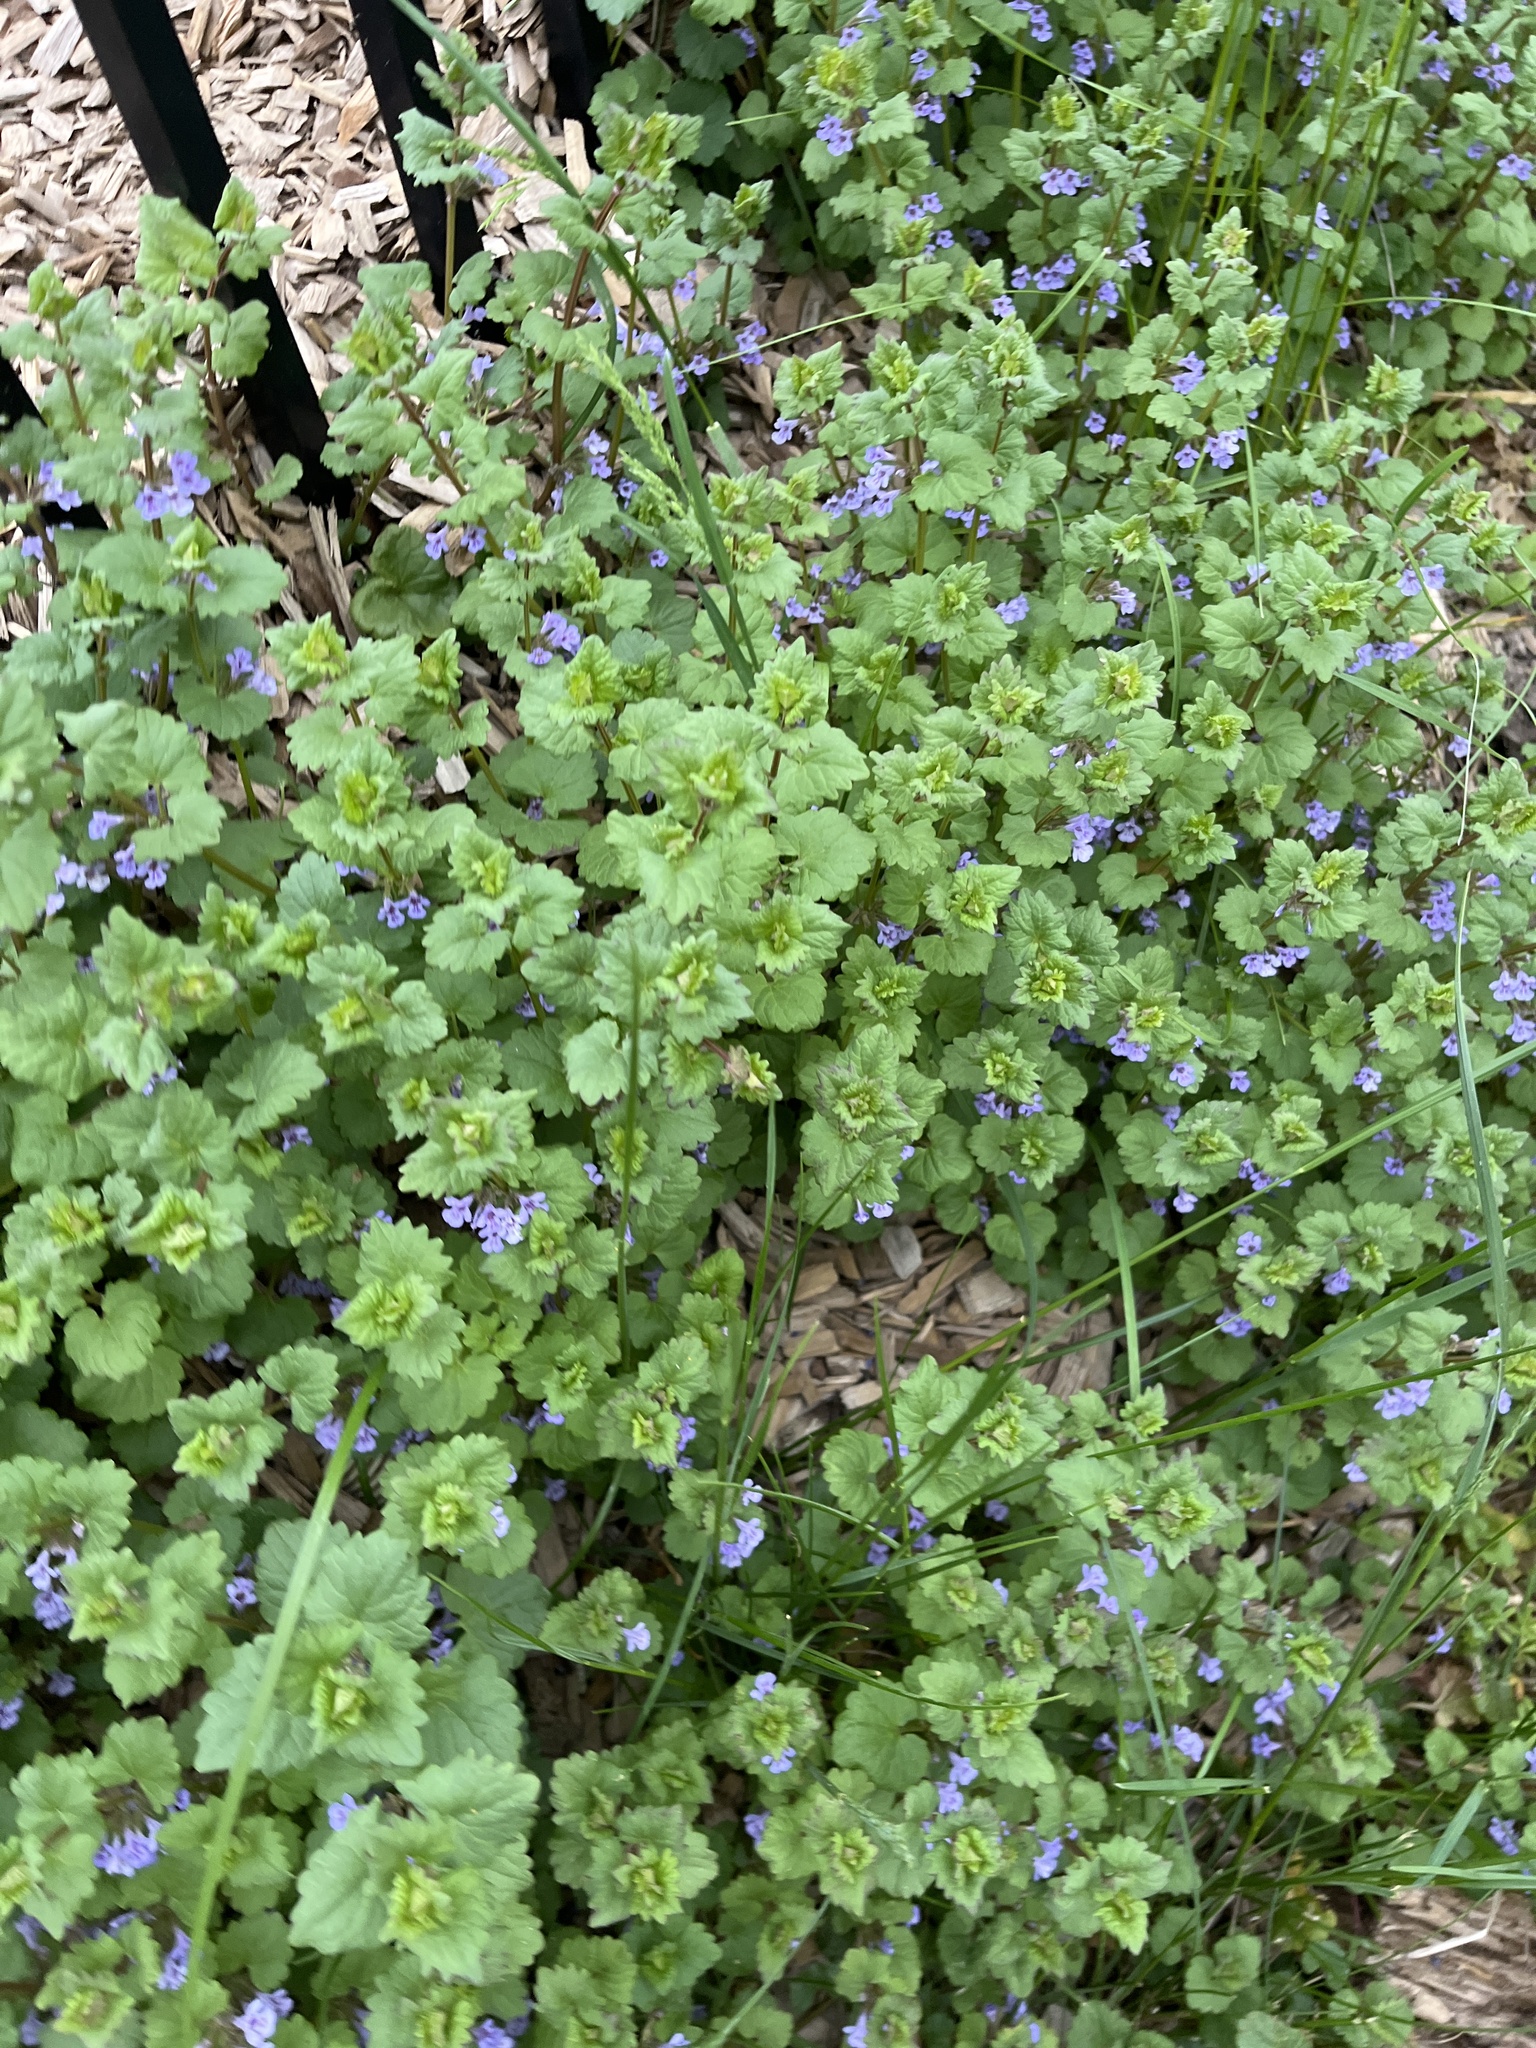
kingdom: Plantae
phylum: Tracheophyta
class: Magnoliopsida
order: Lamiales
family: Lamiaceae
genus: Glechoma
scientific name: Glechoma hederacea
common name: Ground ivy
